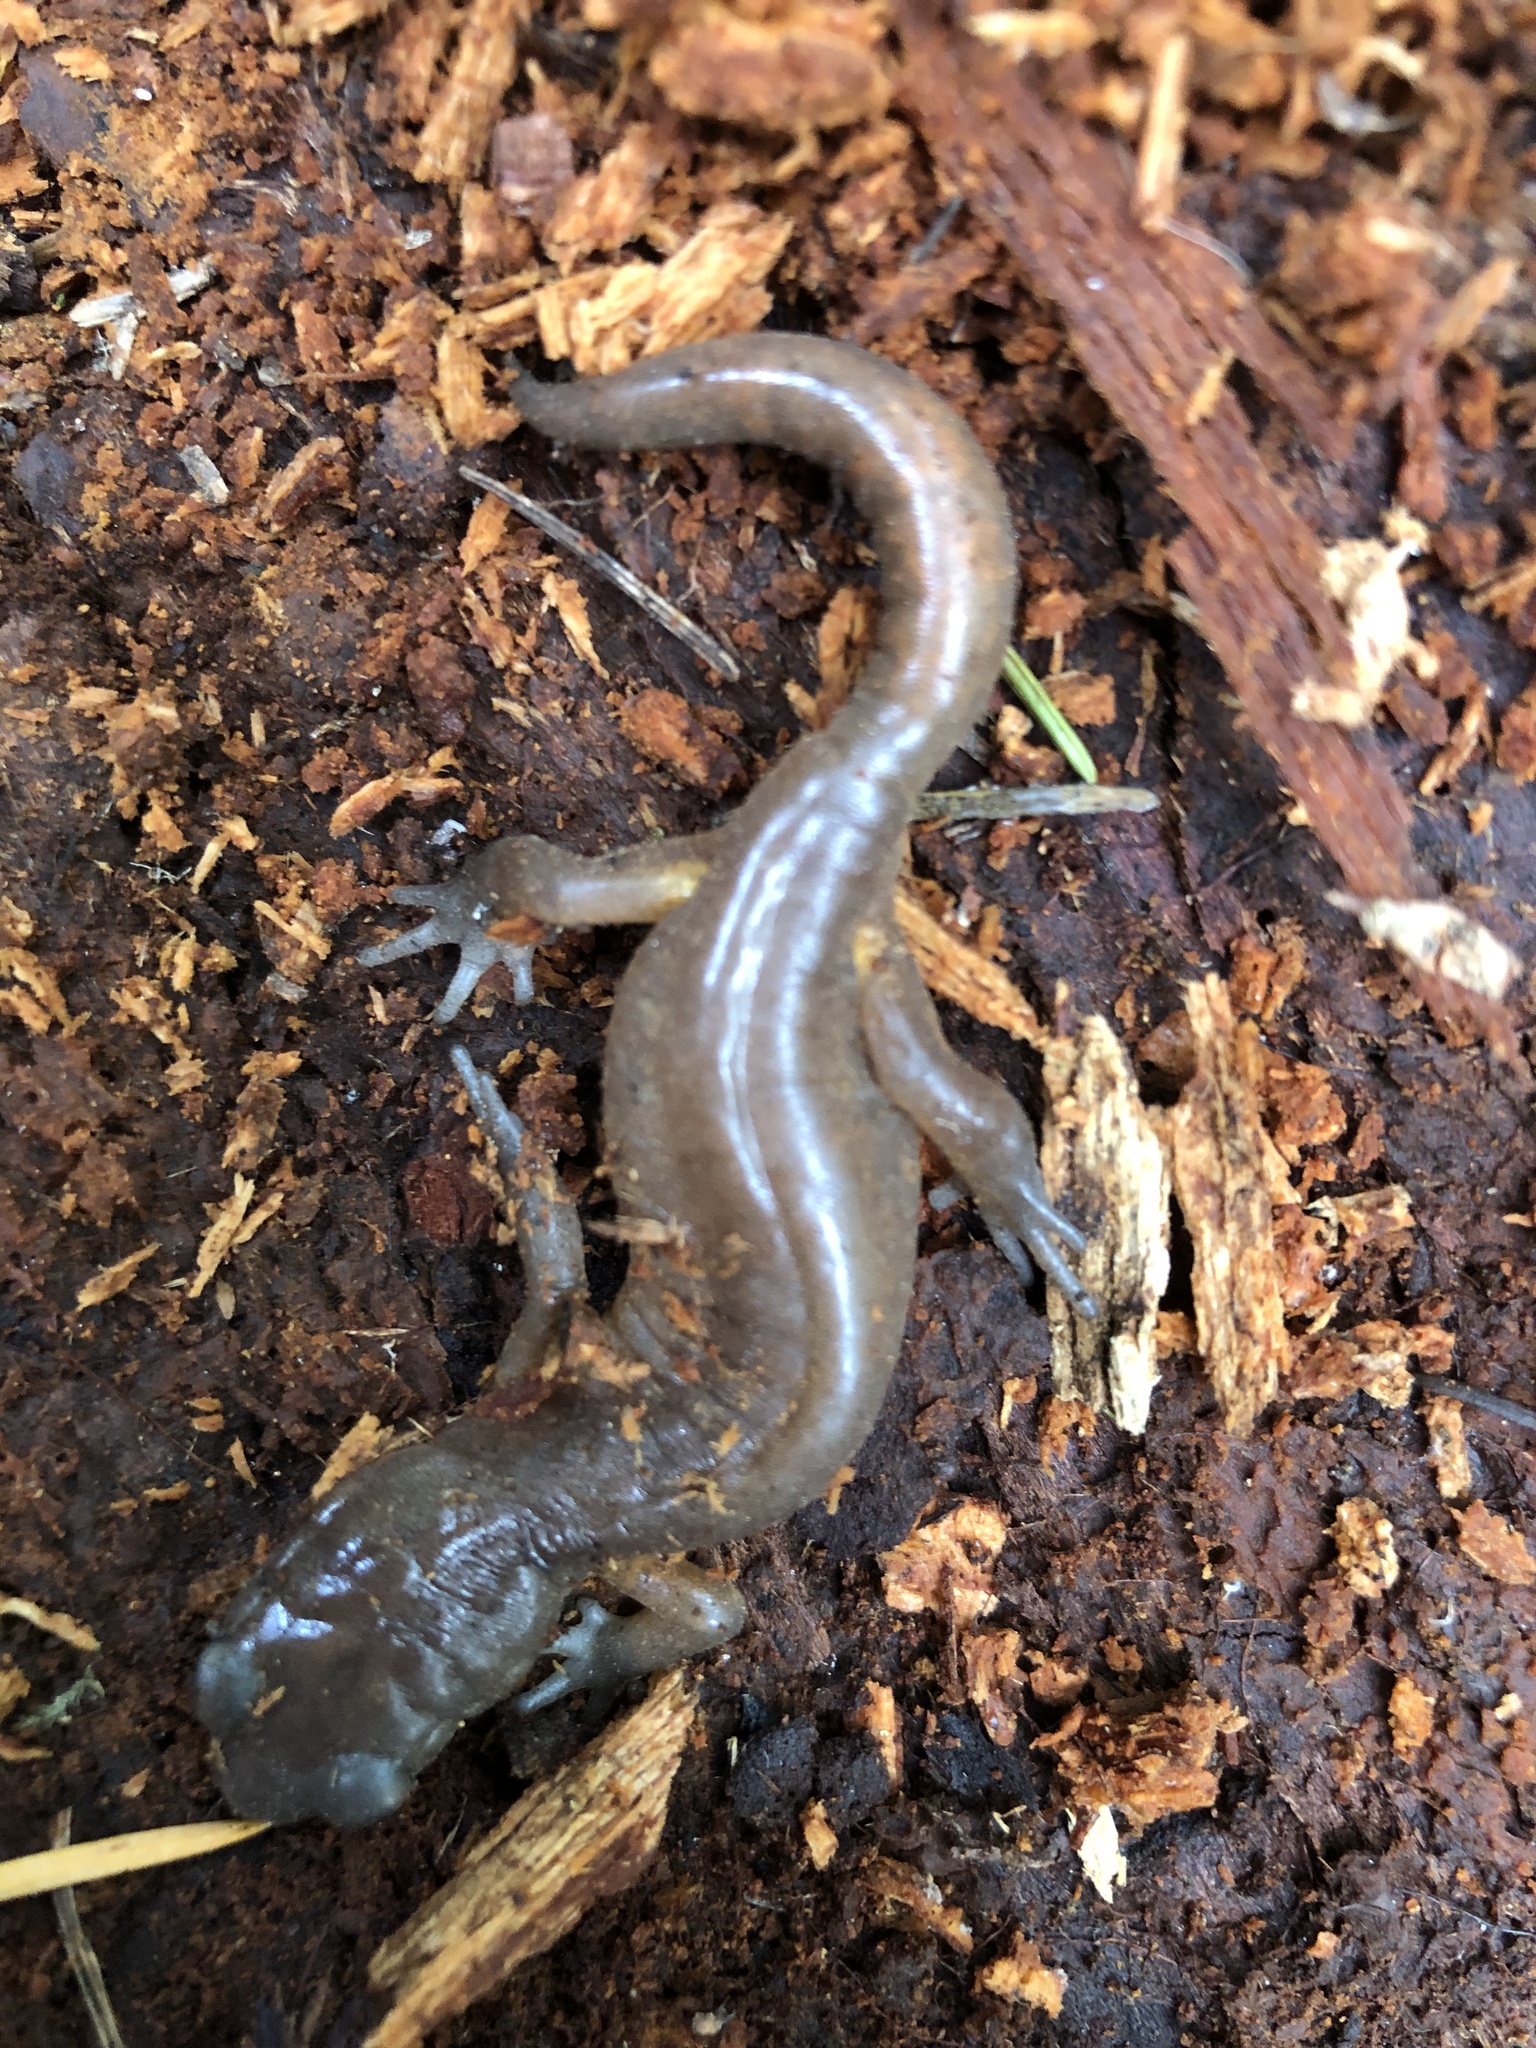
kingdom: Animalia
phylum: Chordata
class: Amphibia
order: Caudata
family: Plethodontidae
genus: Ensatina
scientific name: Ensatina eschscholtzii
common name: Ensatina
